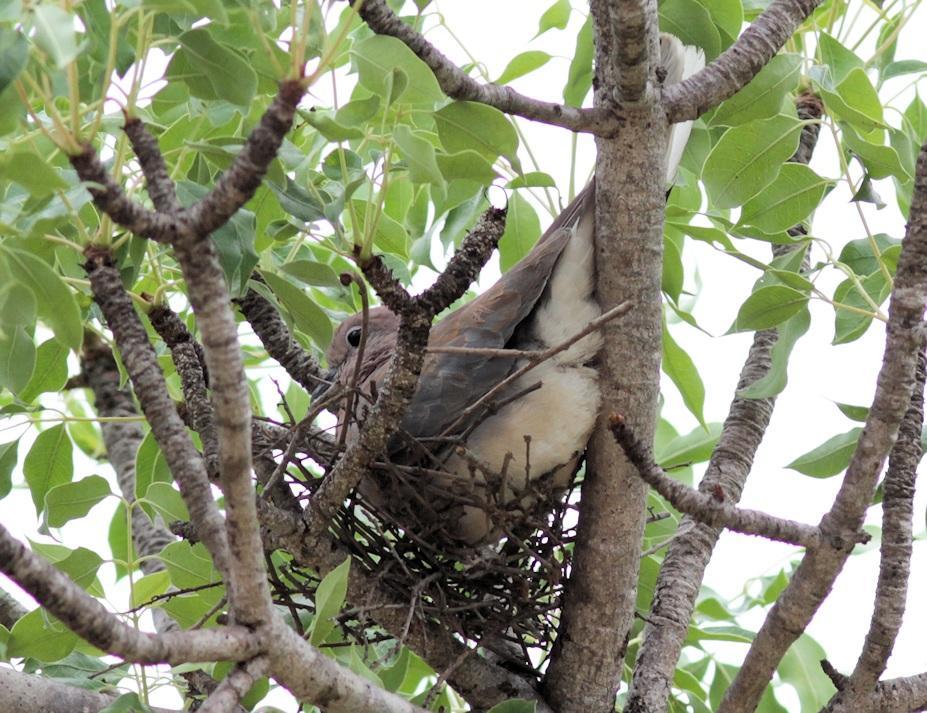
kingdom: Animalia
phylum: Chordata
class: Aves
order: Columbiformes
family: Columbidae
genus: Spilopelia
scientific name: Spilopelia senegalensis
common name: Laughing dove
